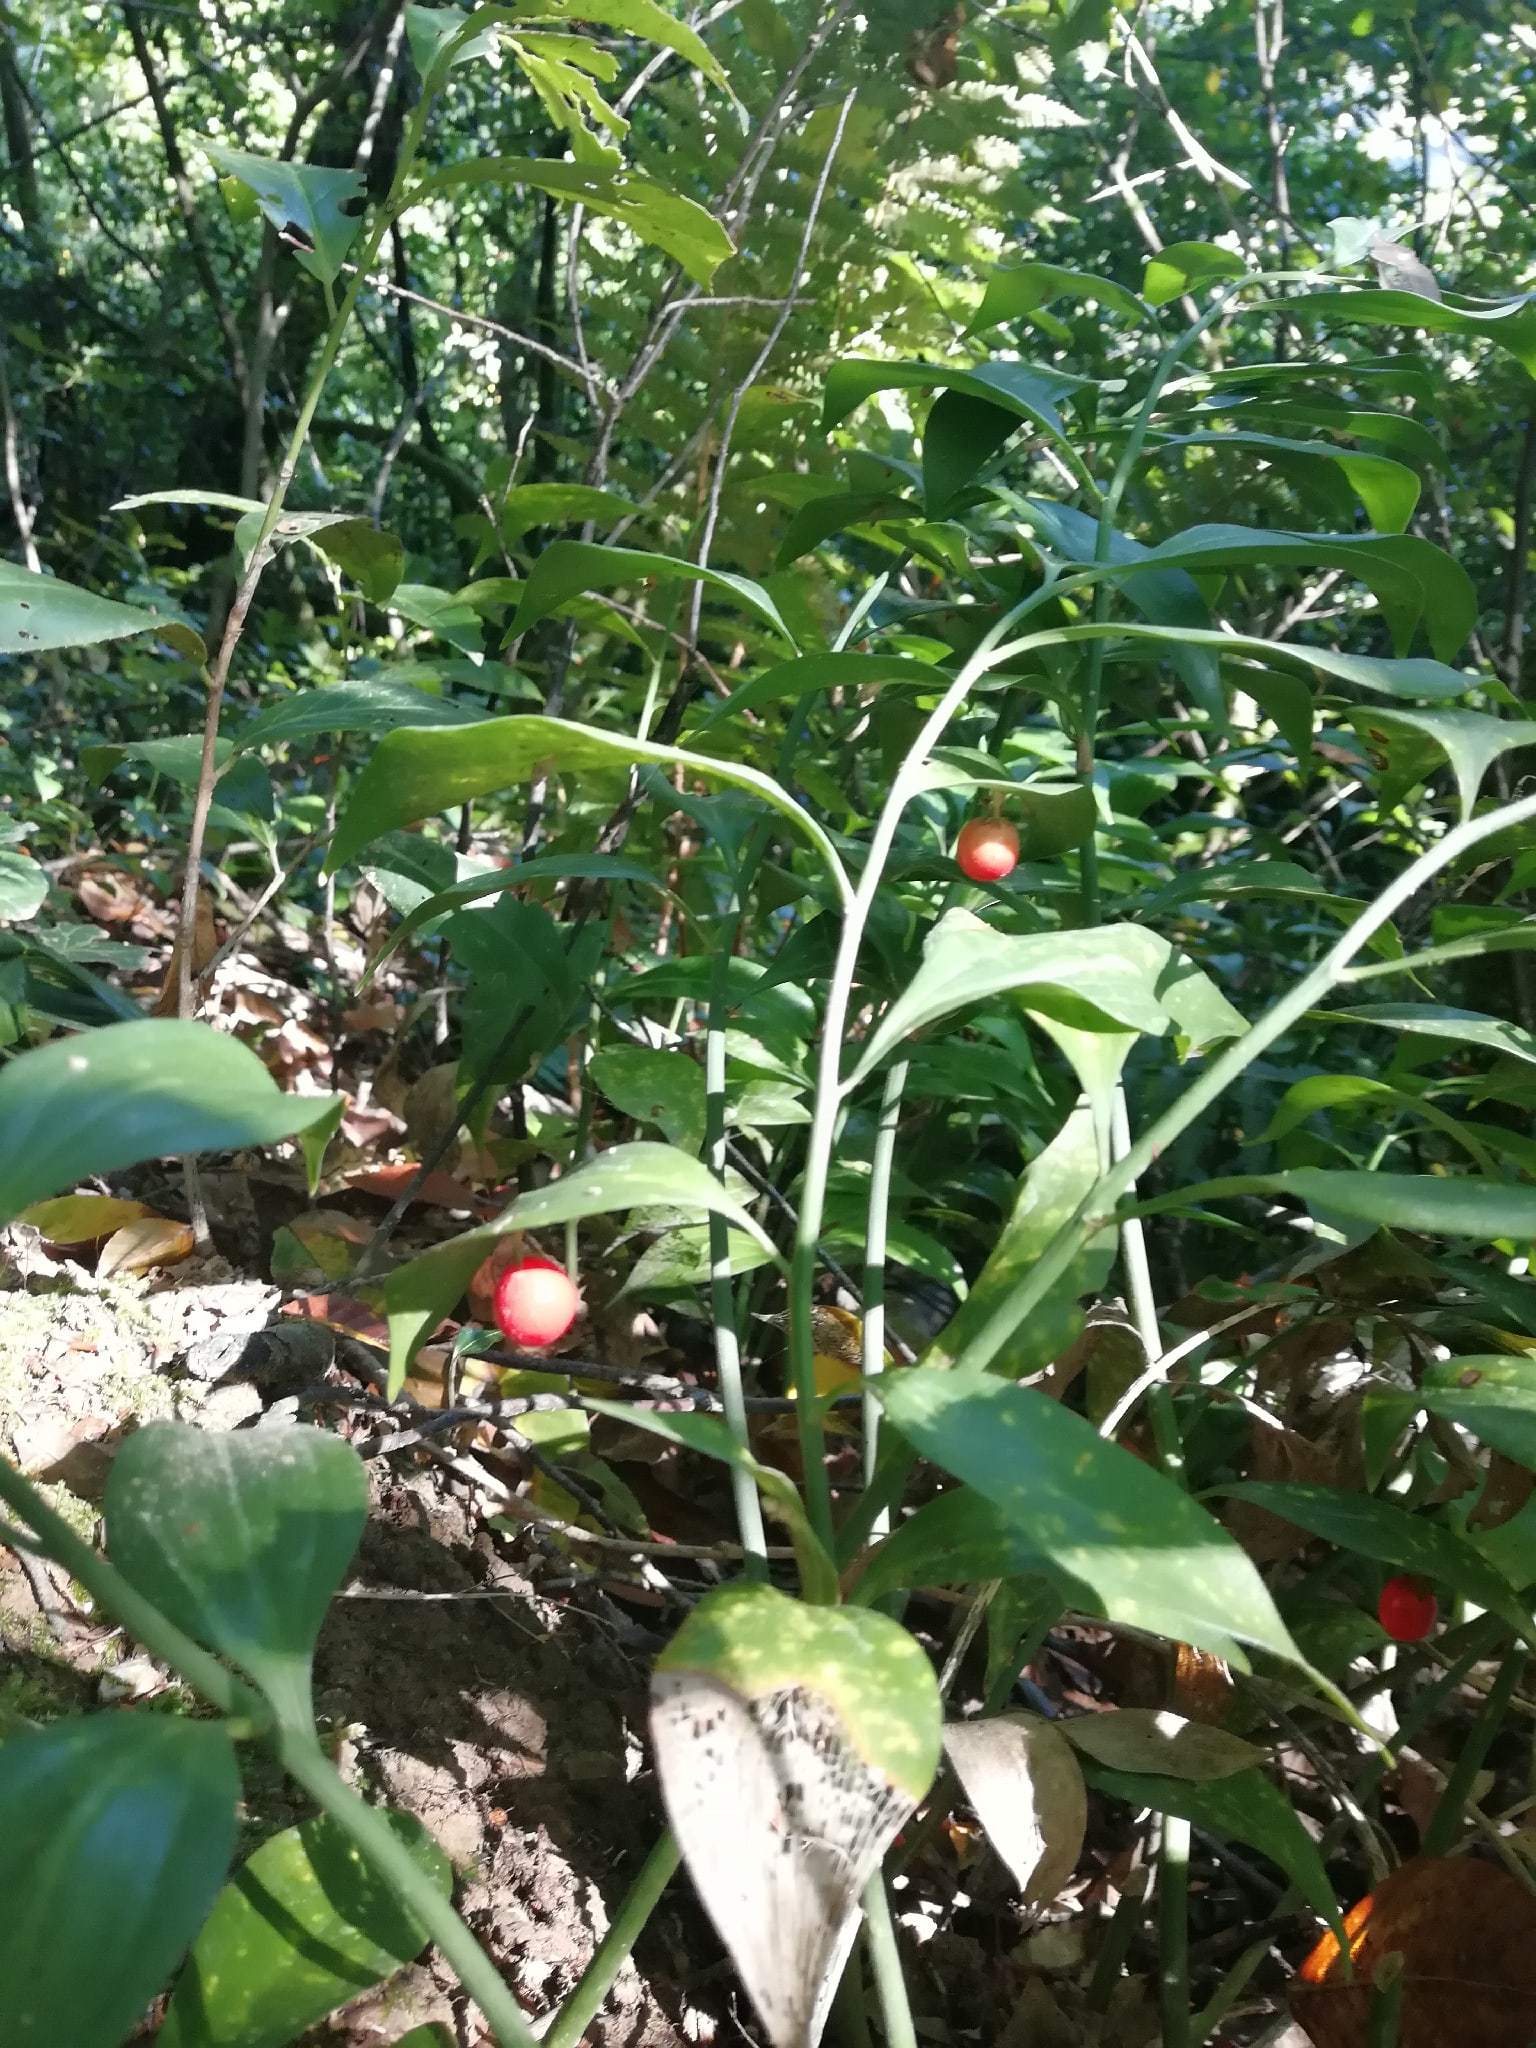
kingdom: Plantae
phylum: Tracheophyta
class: Liliopsida
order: Asparagales
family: Asparagaceae
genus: Ruscus
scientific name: Ruscus colchicus
